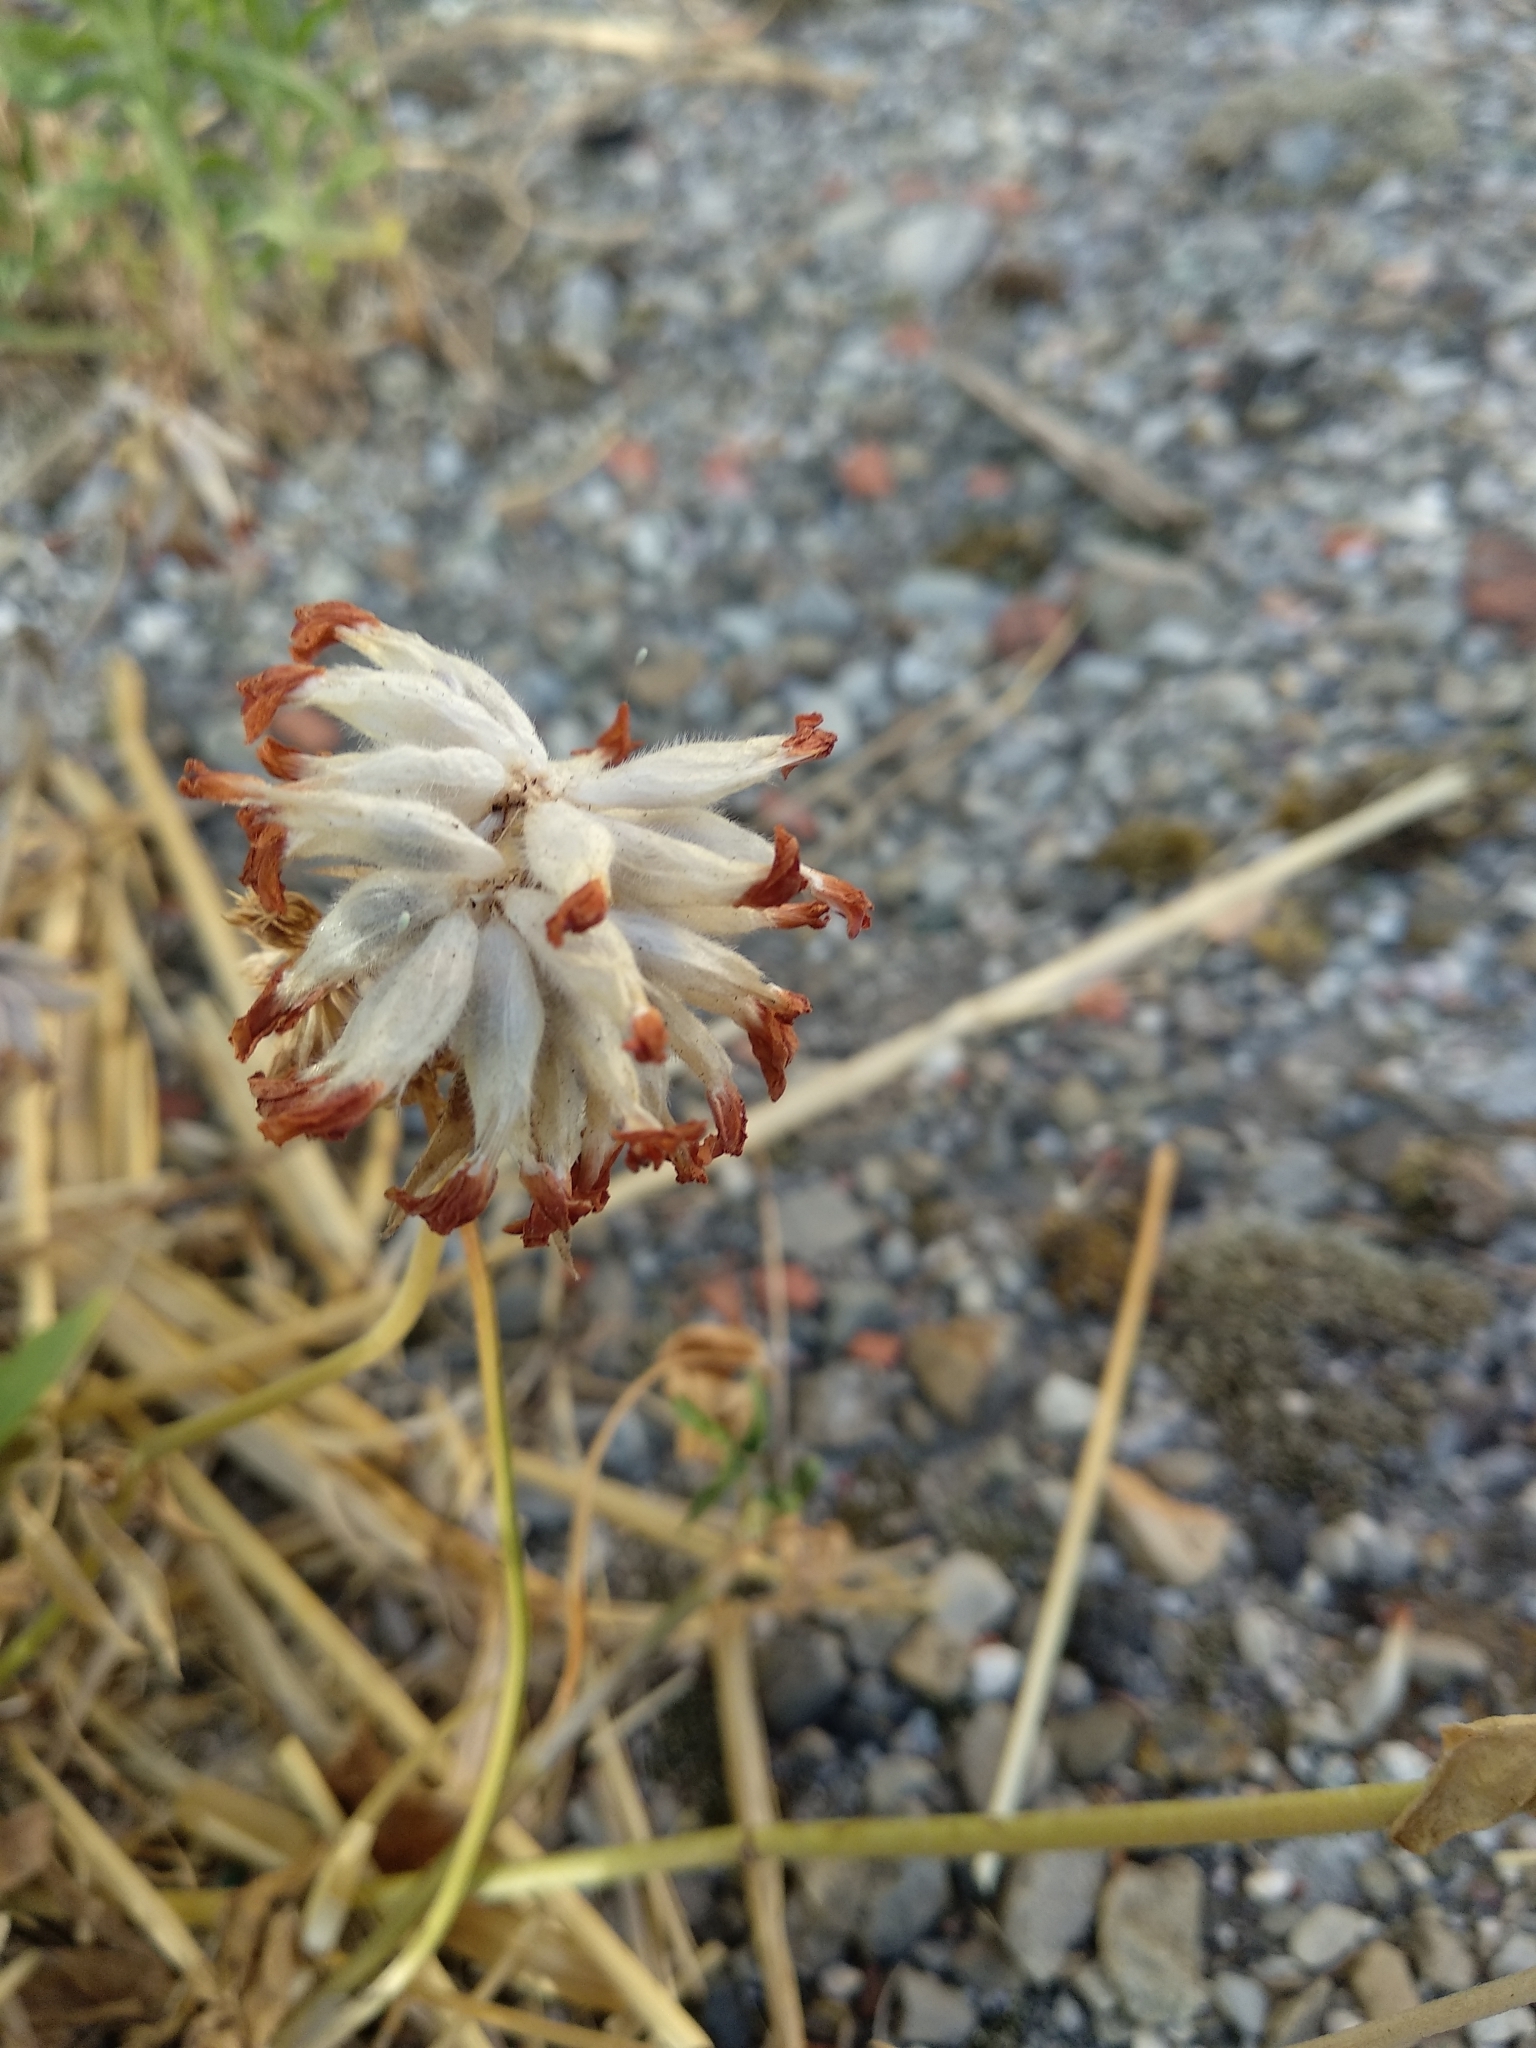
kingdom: Plantae
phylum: Tracheophyta
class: Magnoliopsida
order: Fabales
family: Fabaceae
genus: Anthyllis
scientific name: Anthyllis vulneraria
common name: Kidney vetch
